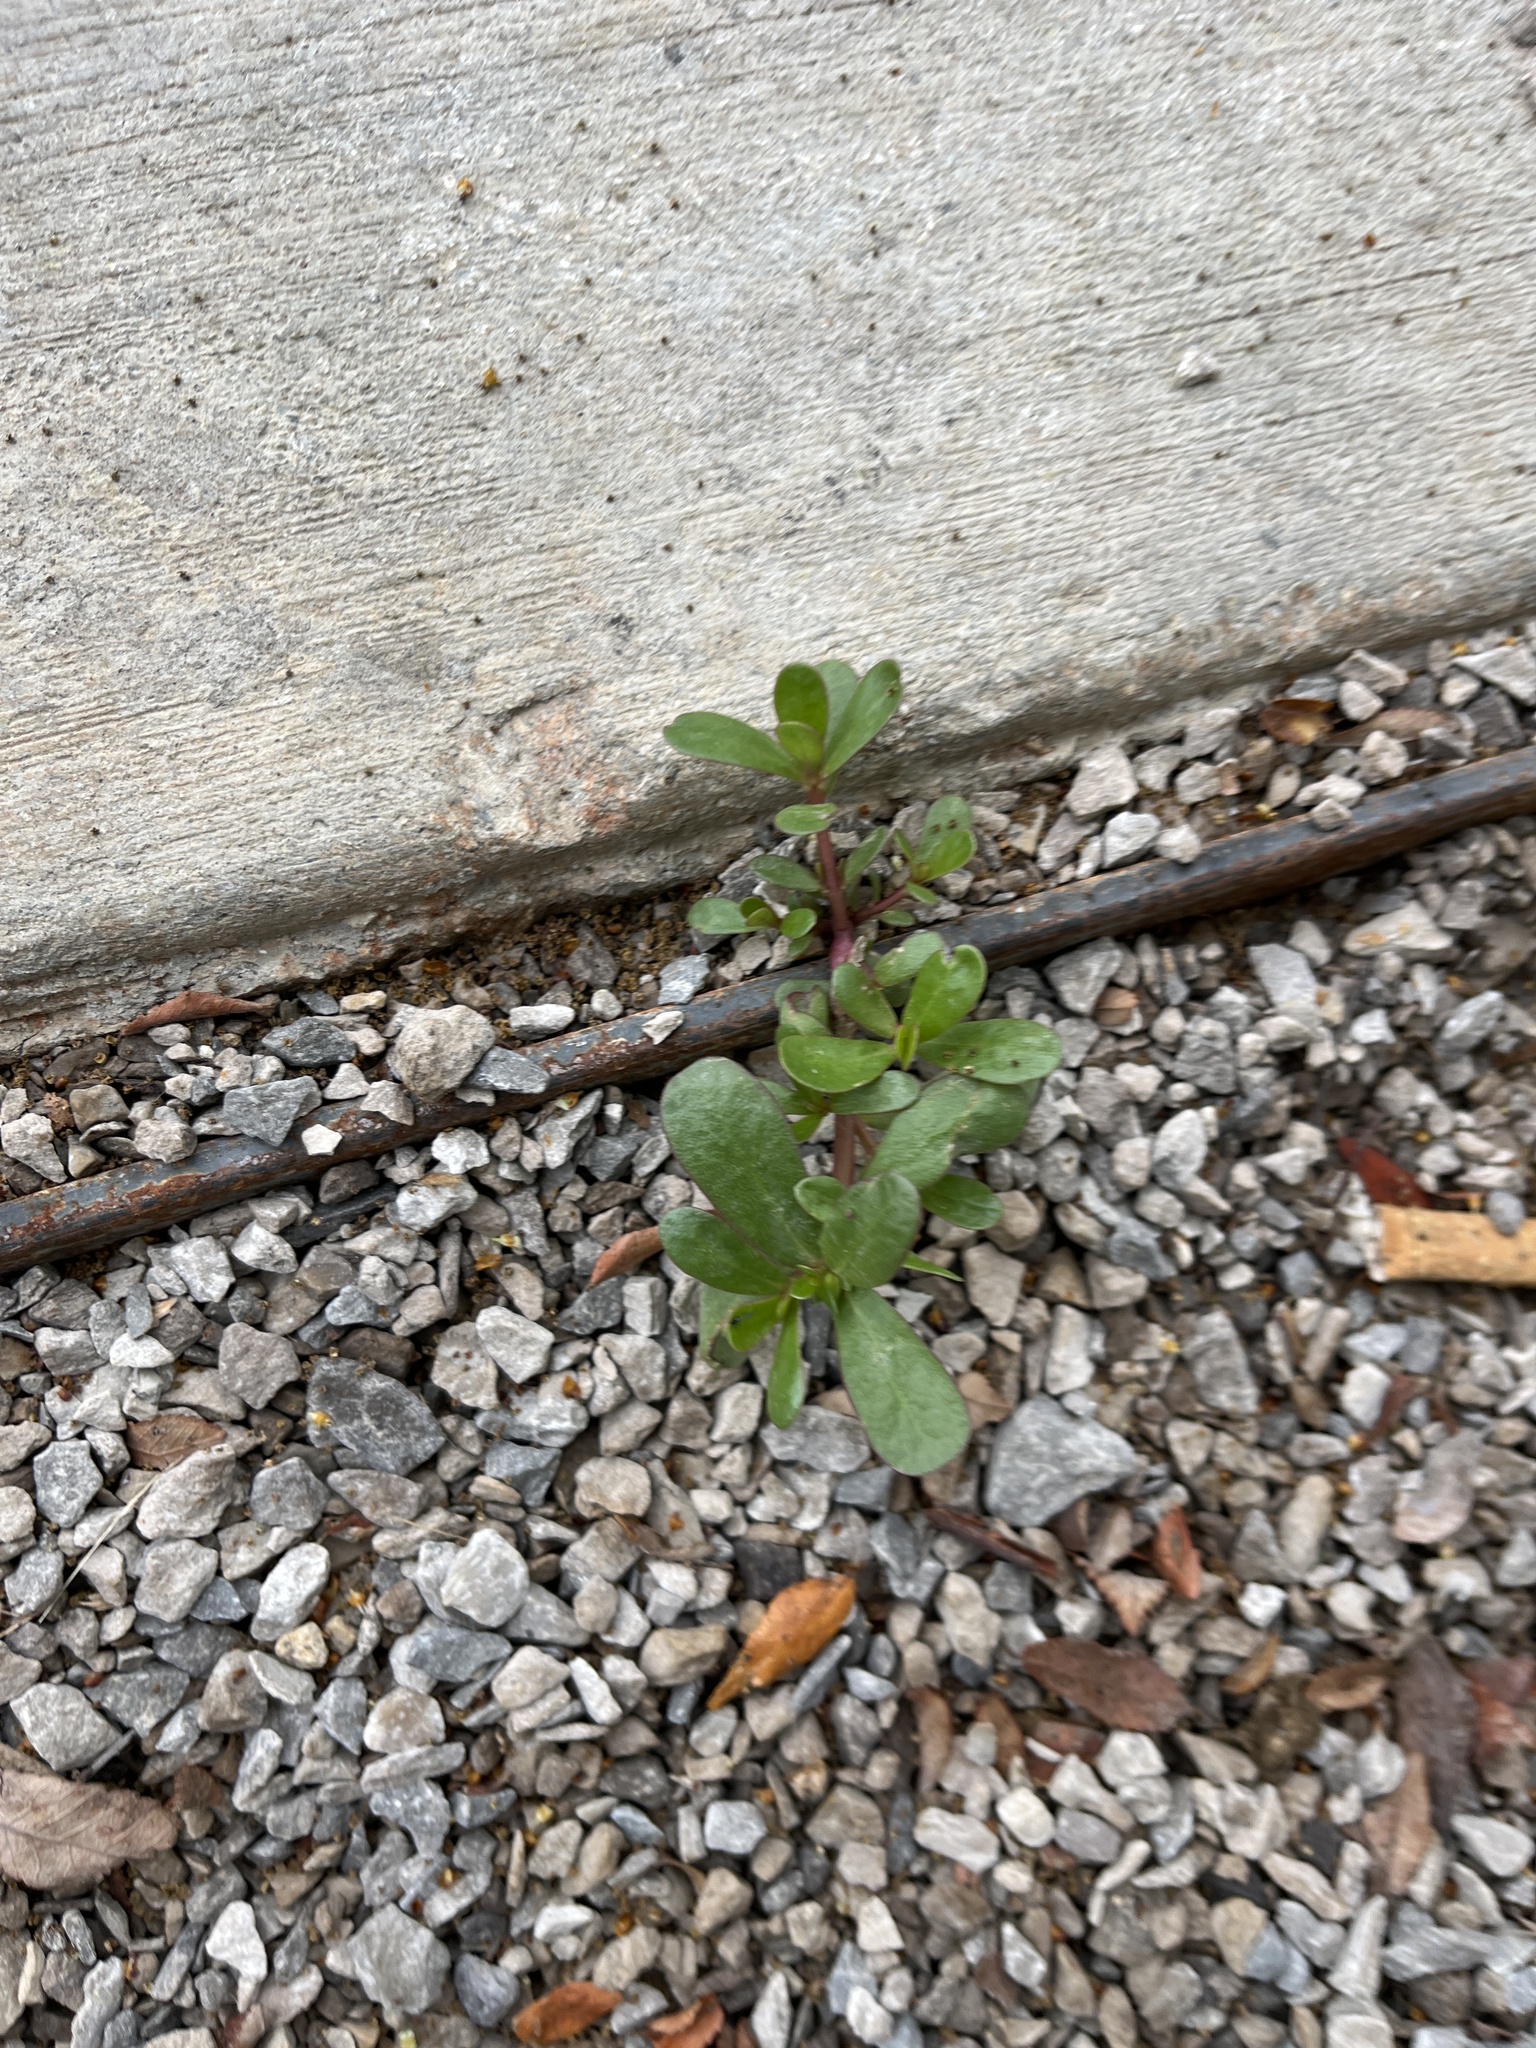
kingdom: Plantae
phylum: Tracheophyta
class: Magnoliopsida
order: Caryophyllales
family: Portulacaceae
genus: Portulaca
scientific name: Portulaca oleracea
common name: Common purslane
